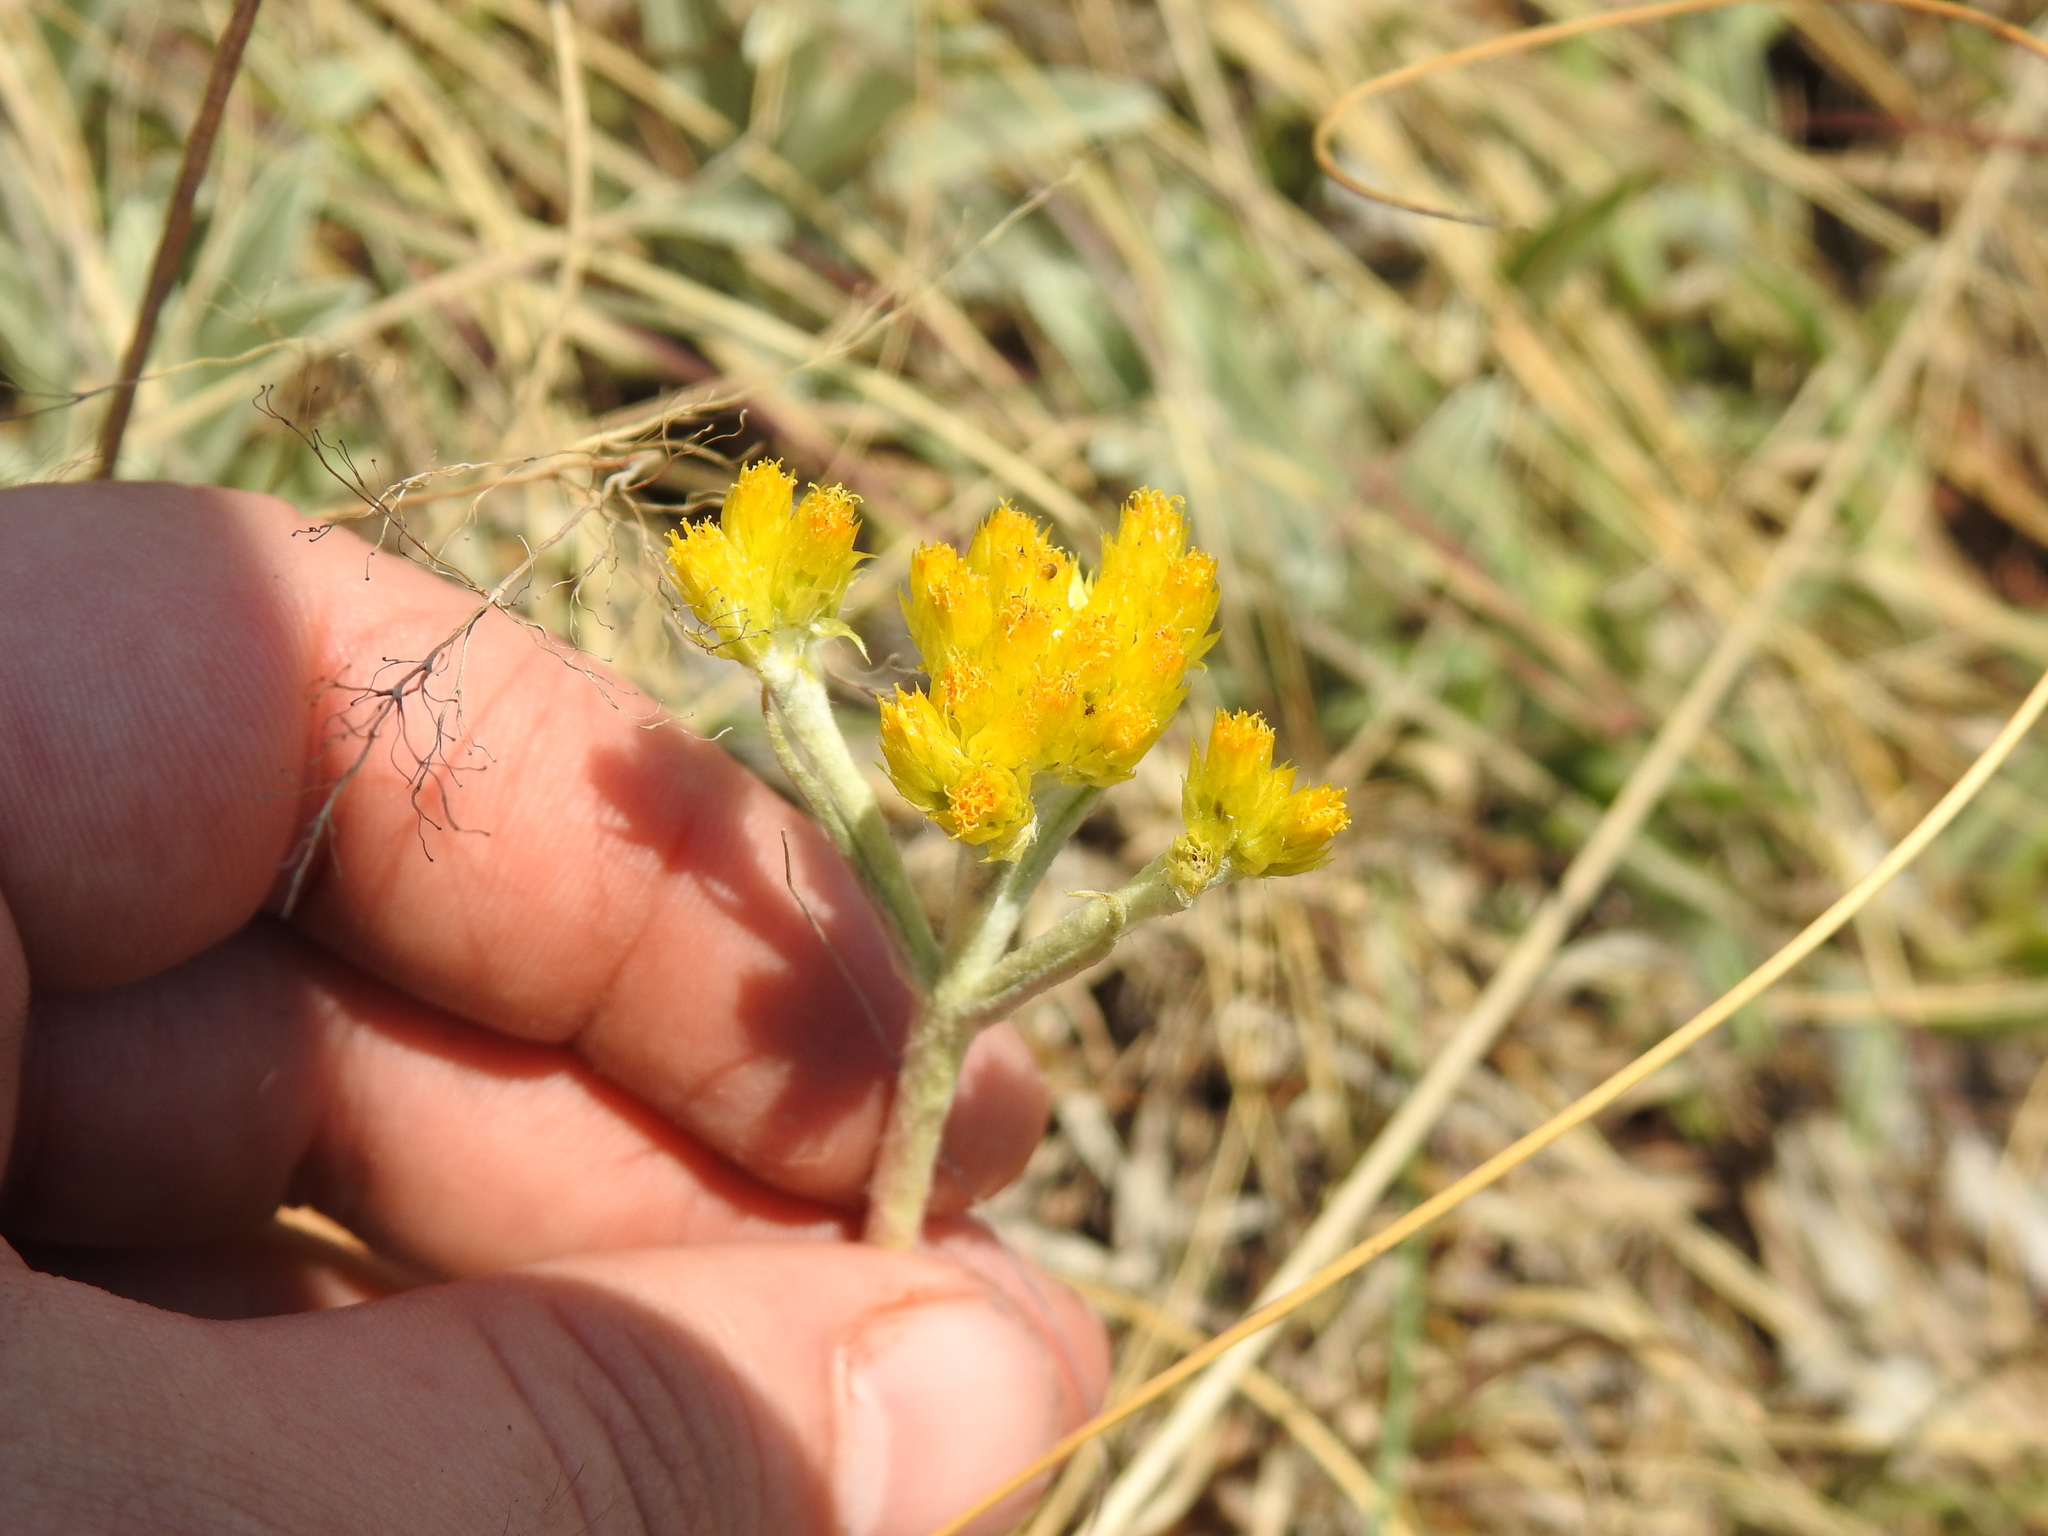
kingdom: Plantae
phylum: Tracheophyta
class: Magnoliopsida
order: Asterales
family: Asteraceae
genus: Helichrysum
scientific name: Helichrysum oreophilum
